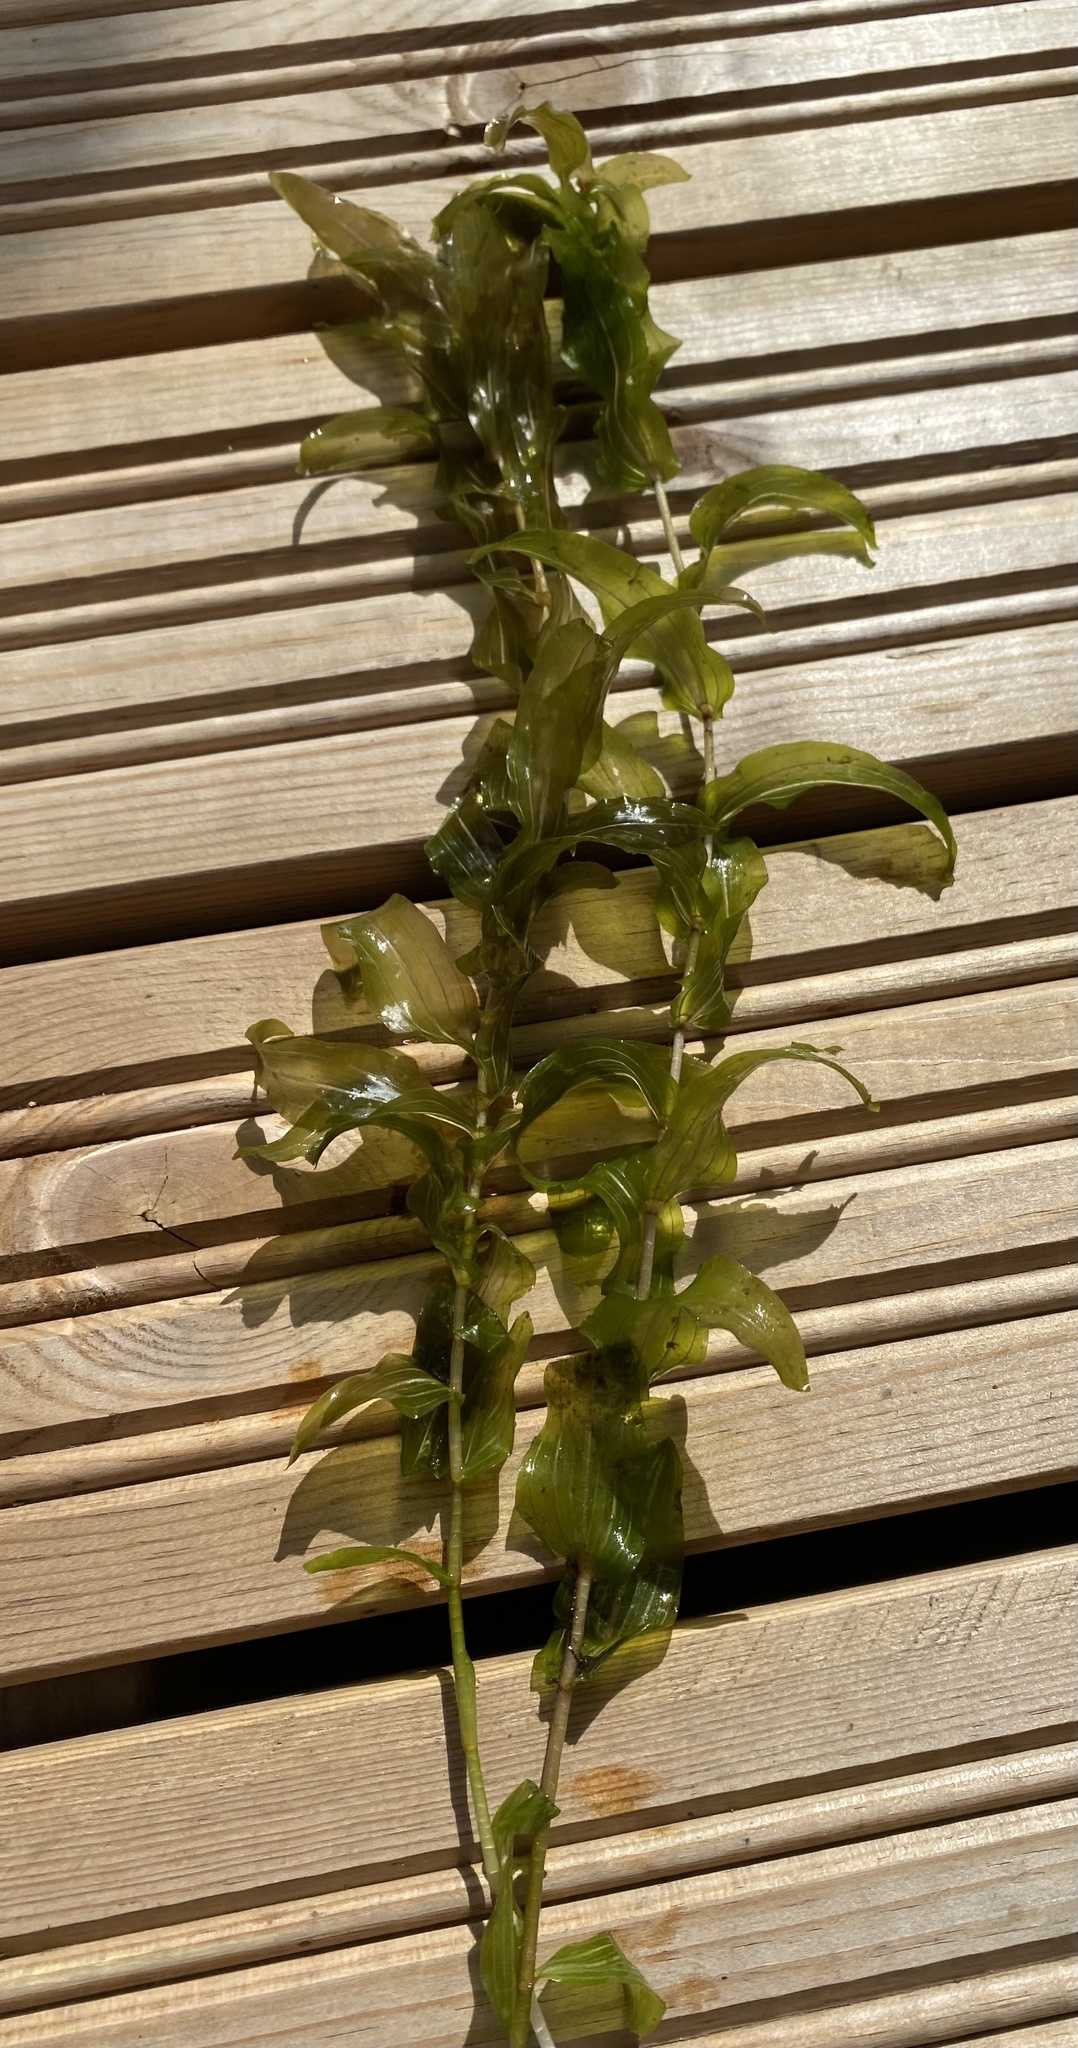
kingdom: Plantae
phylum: Tracheophyta
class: Liliopsida
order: Alismatales
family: Potamogetonaceae
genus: Potamogeton
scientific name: Potamogeton perfoliatus
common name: Perfoliate pondweed
